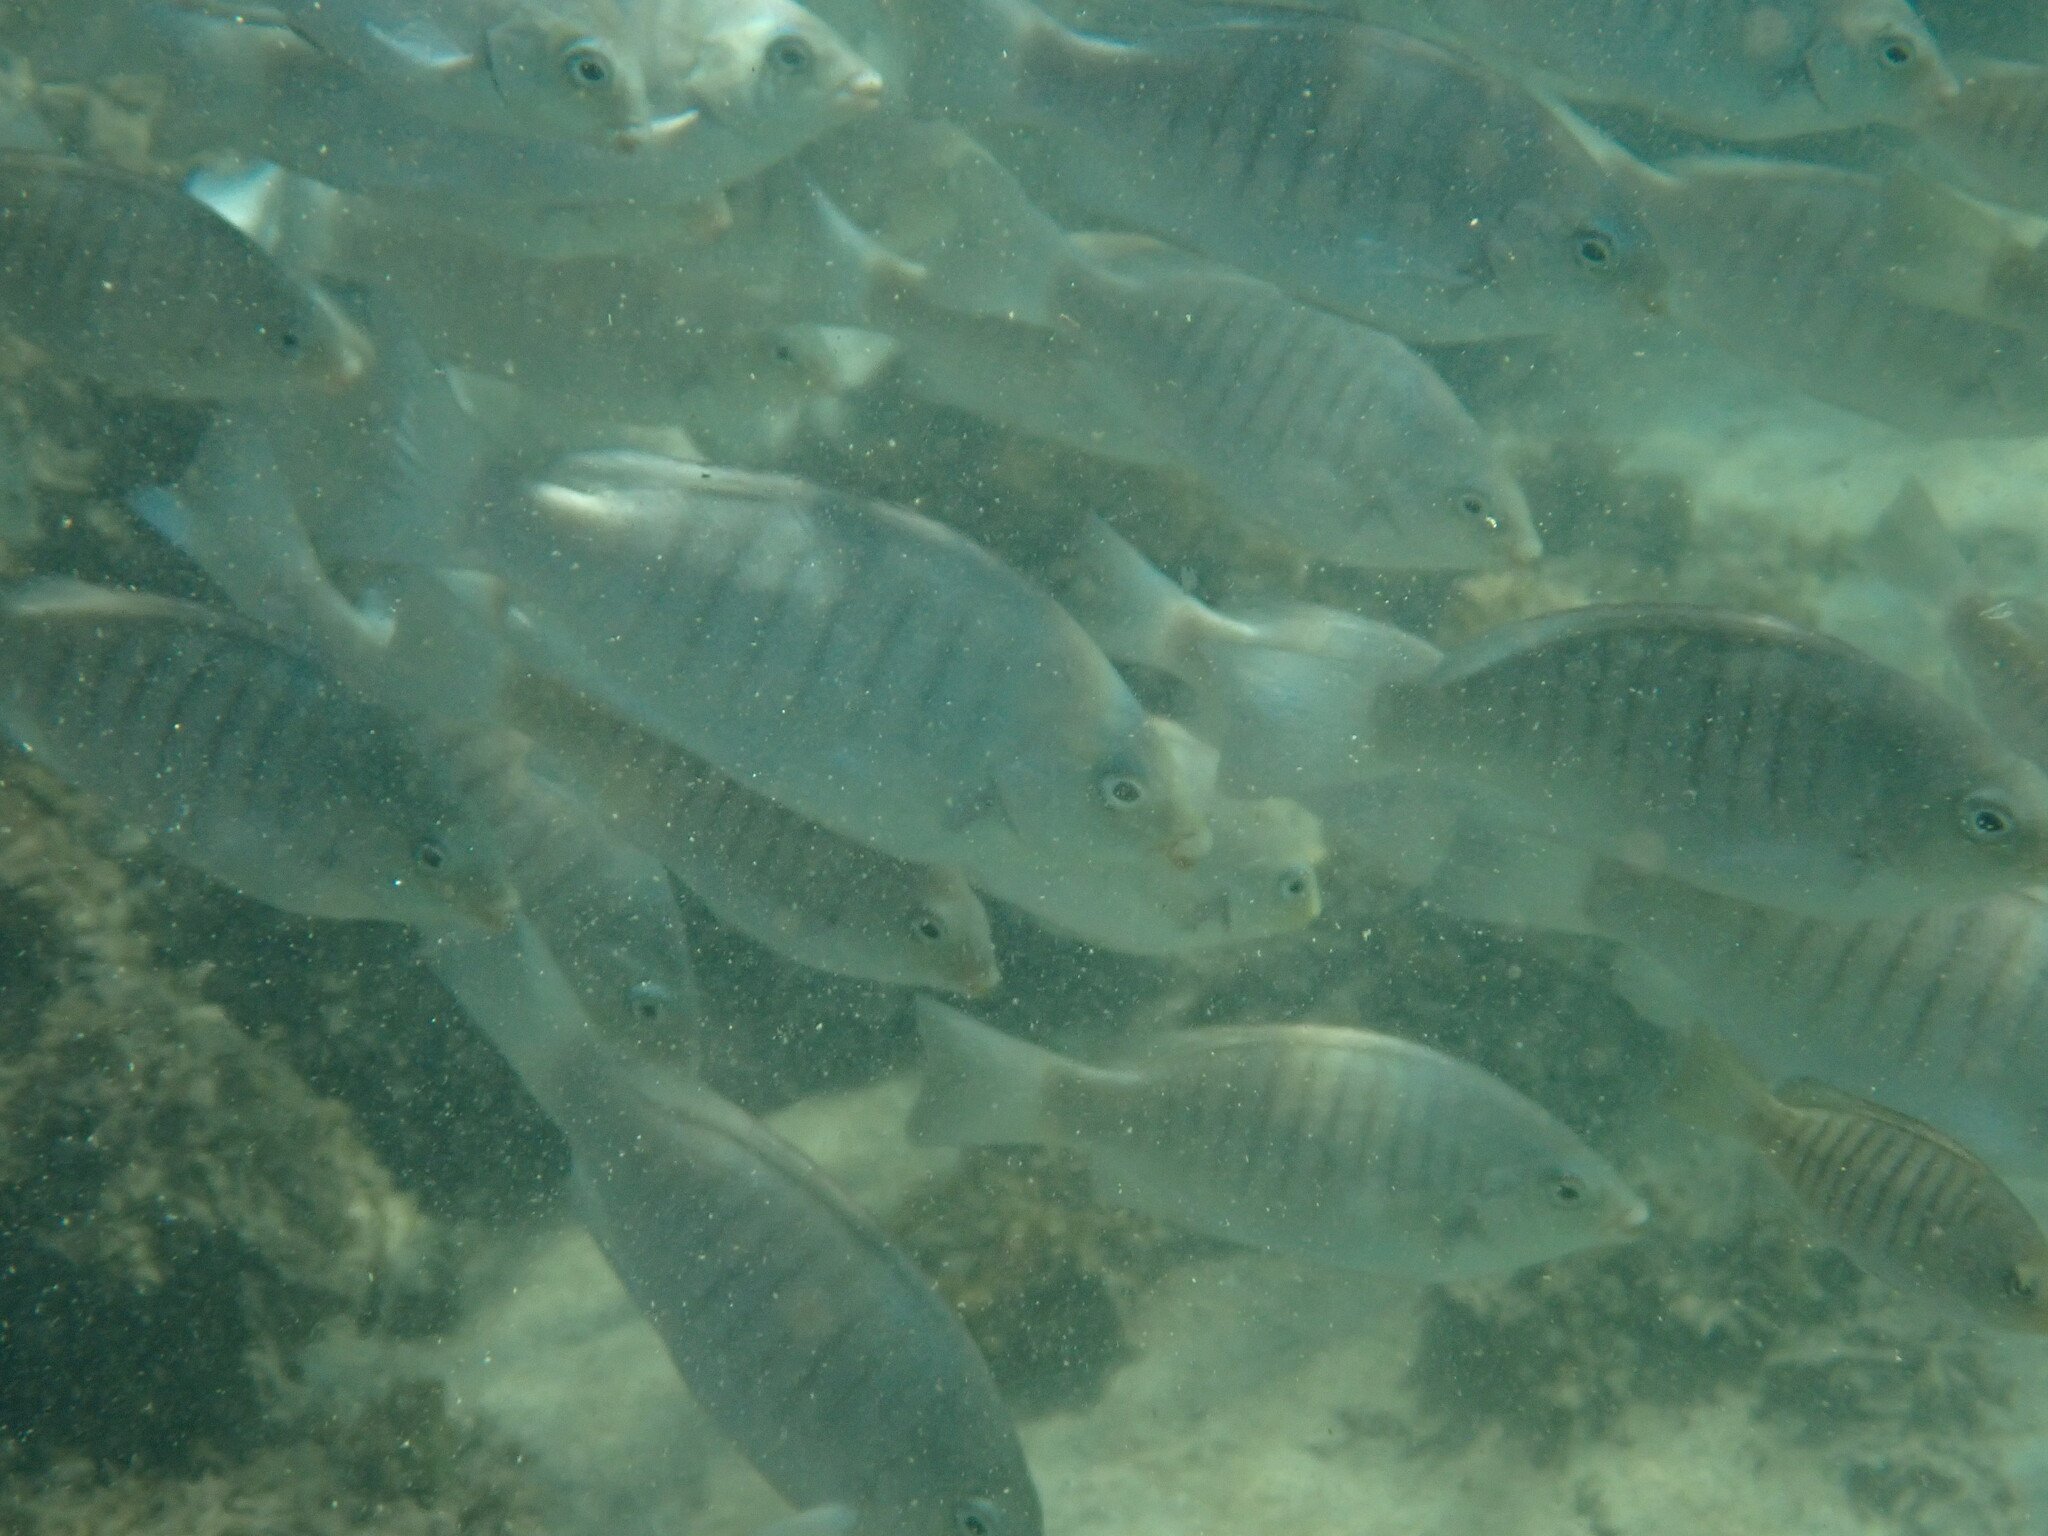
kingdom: Animalia
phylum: Chordata
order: Perciformes
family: Kyphosidae
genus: Girella
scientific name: Girella tricuspidata
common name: Parore
